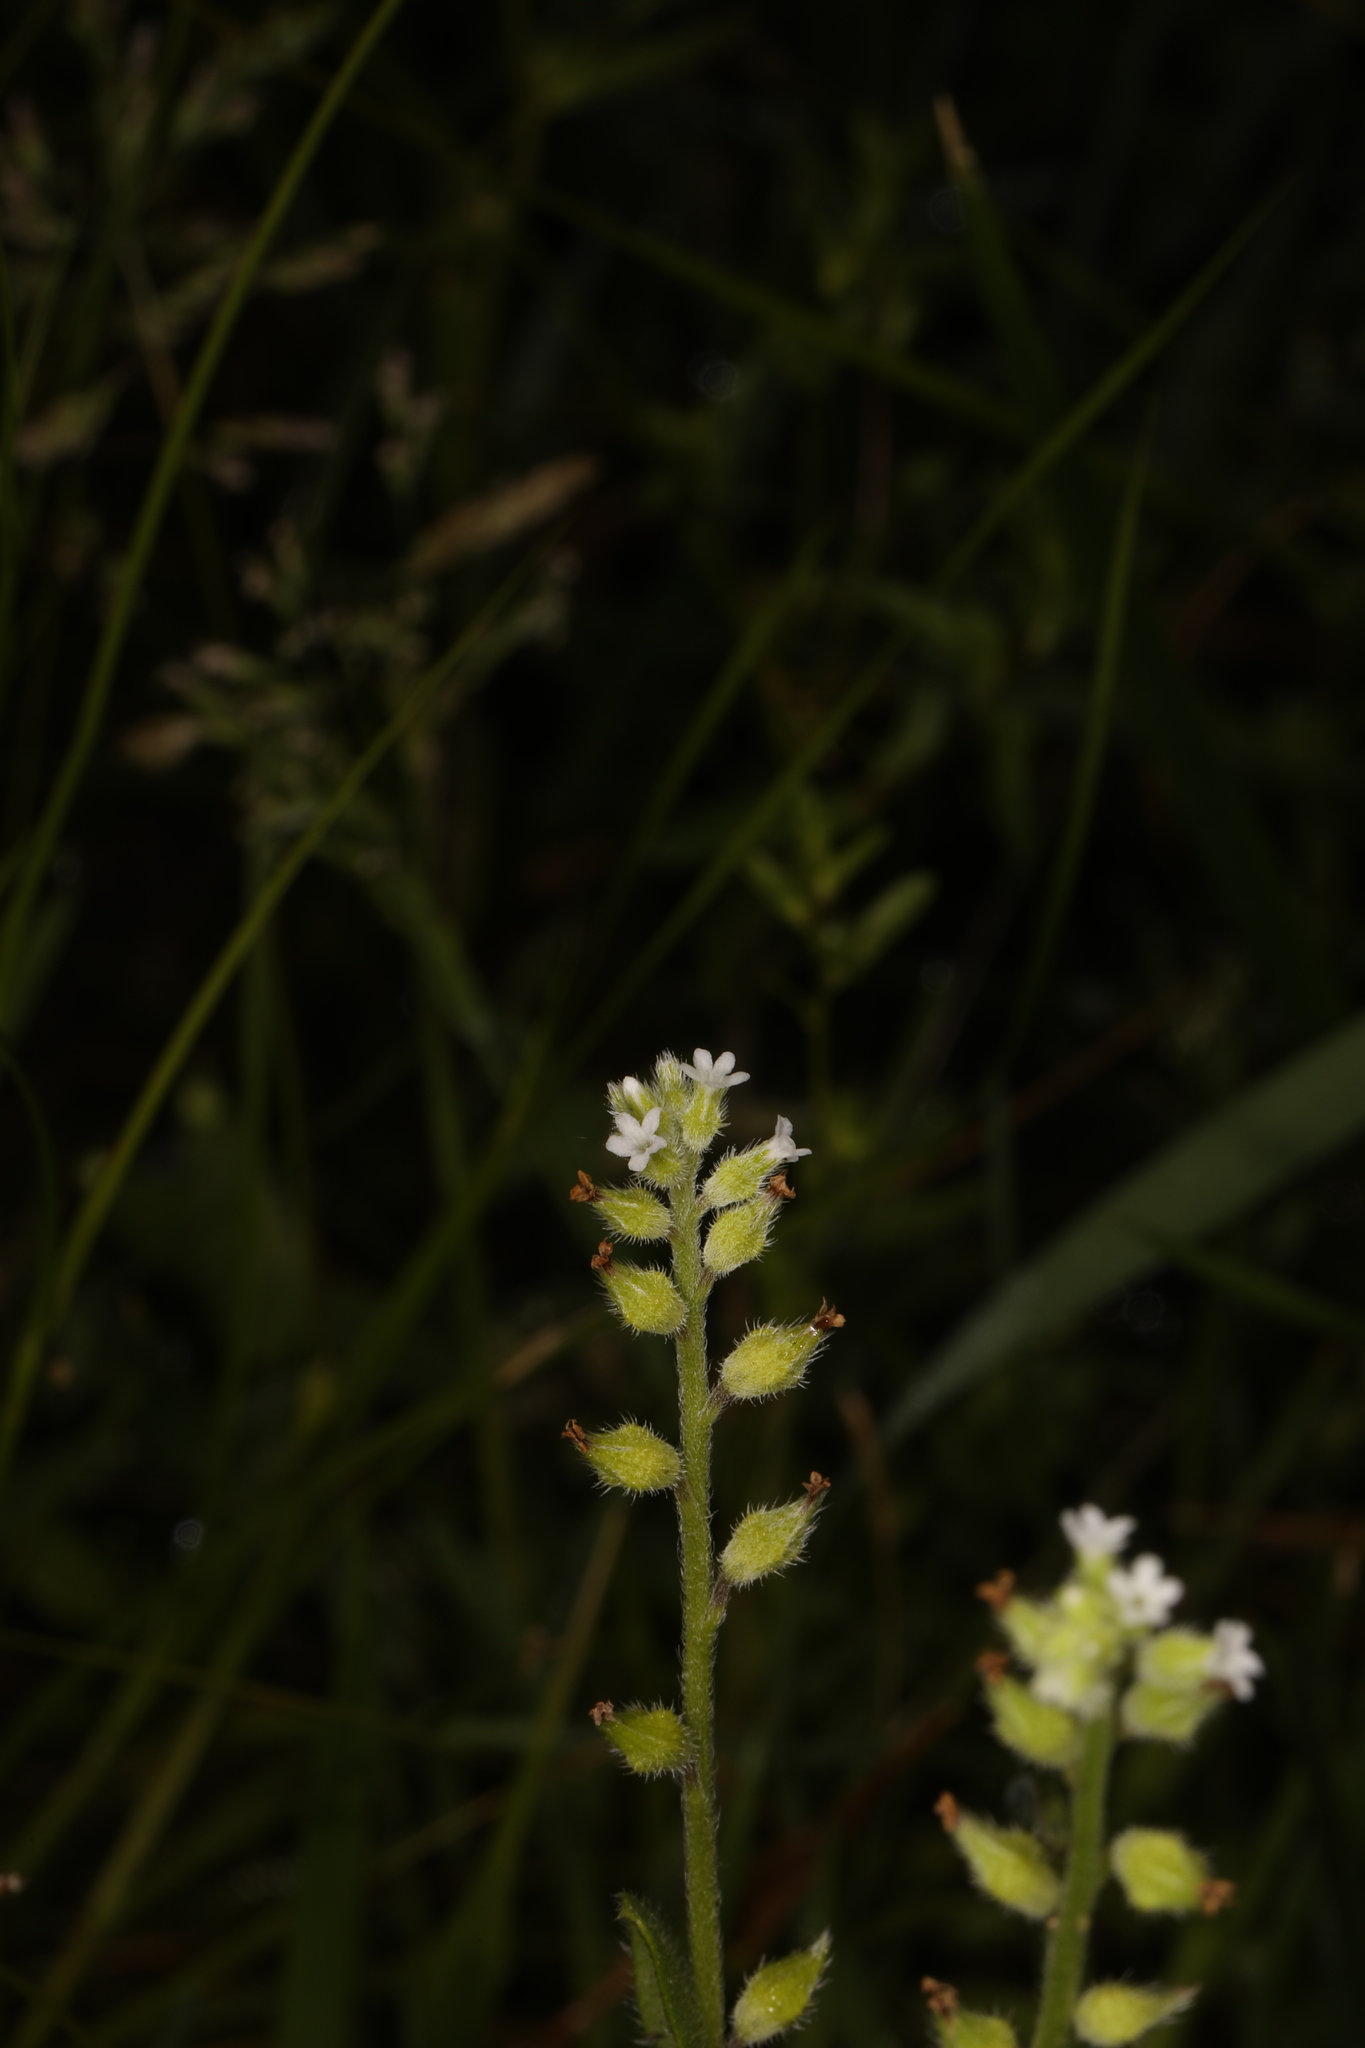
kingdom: Plantae
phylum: Tracheophyta
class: Magnoliopsida
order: Boraginales
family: Boraginaceae
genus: Myosotis
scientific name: Myosotis verna
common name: Early forget-me-not
